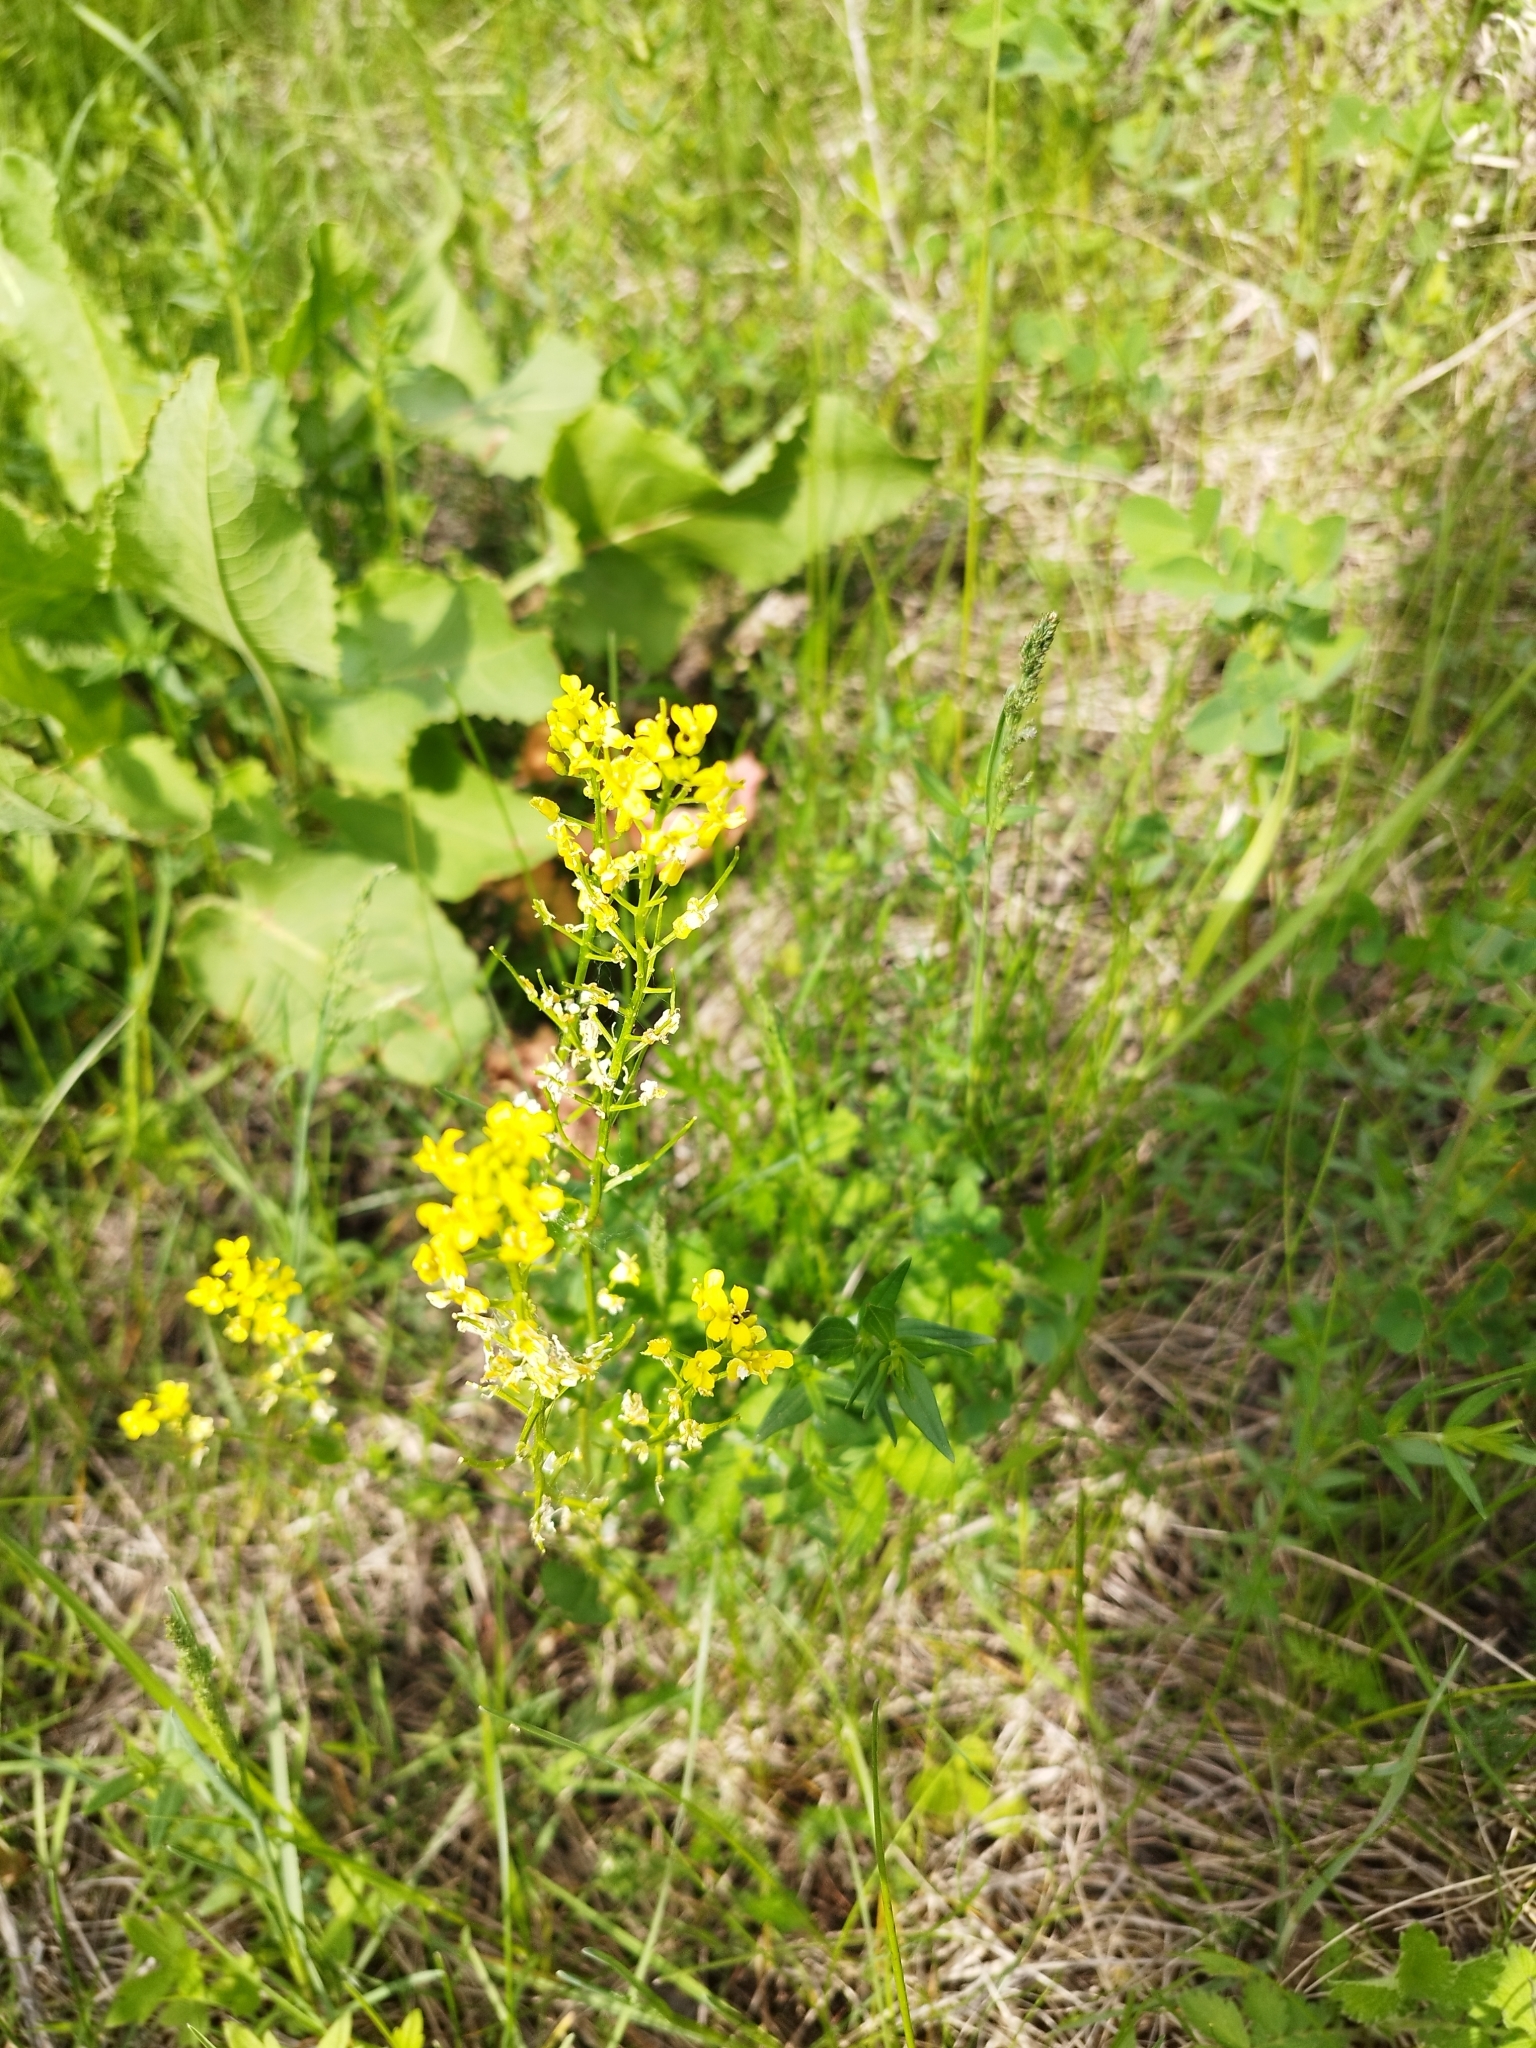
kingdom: Plantae
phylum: Tracheophyta
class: Magnoliopsida
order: Brassicales
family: Brassicaceae
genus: Barbarea
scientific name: Barbarea vulgaris
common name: Cressy-greens
